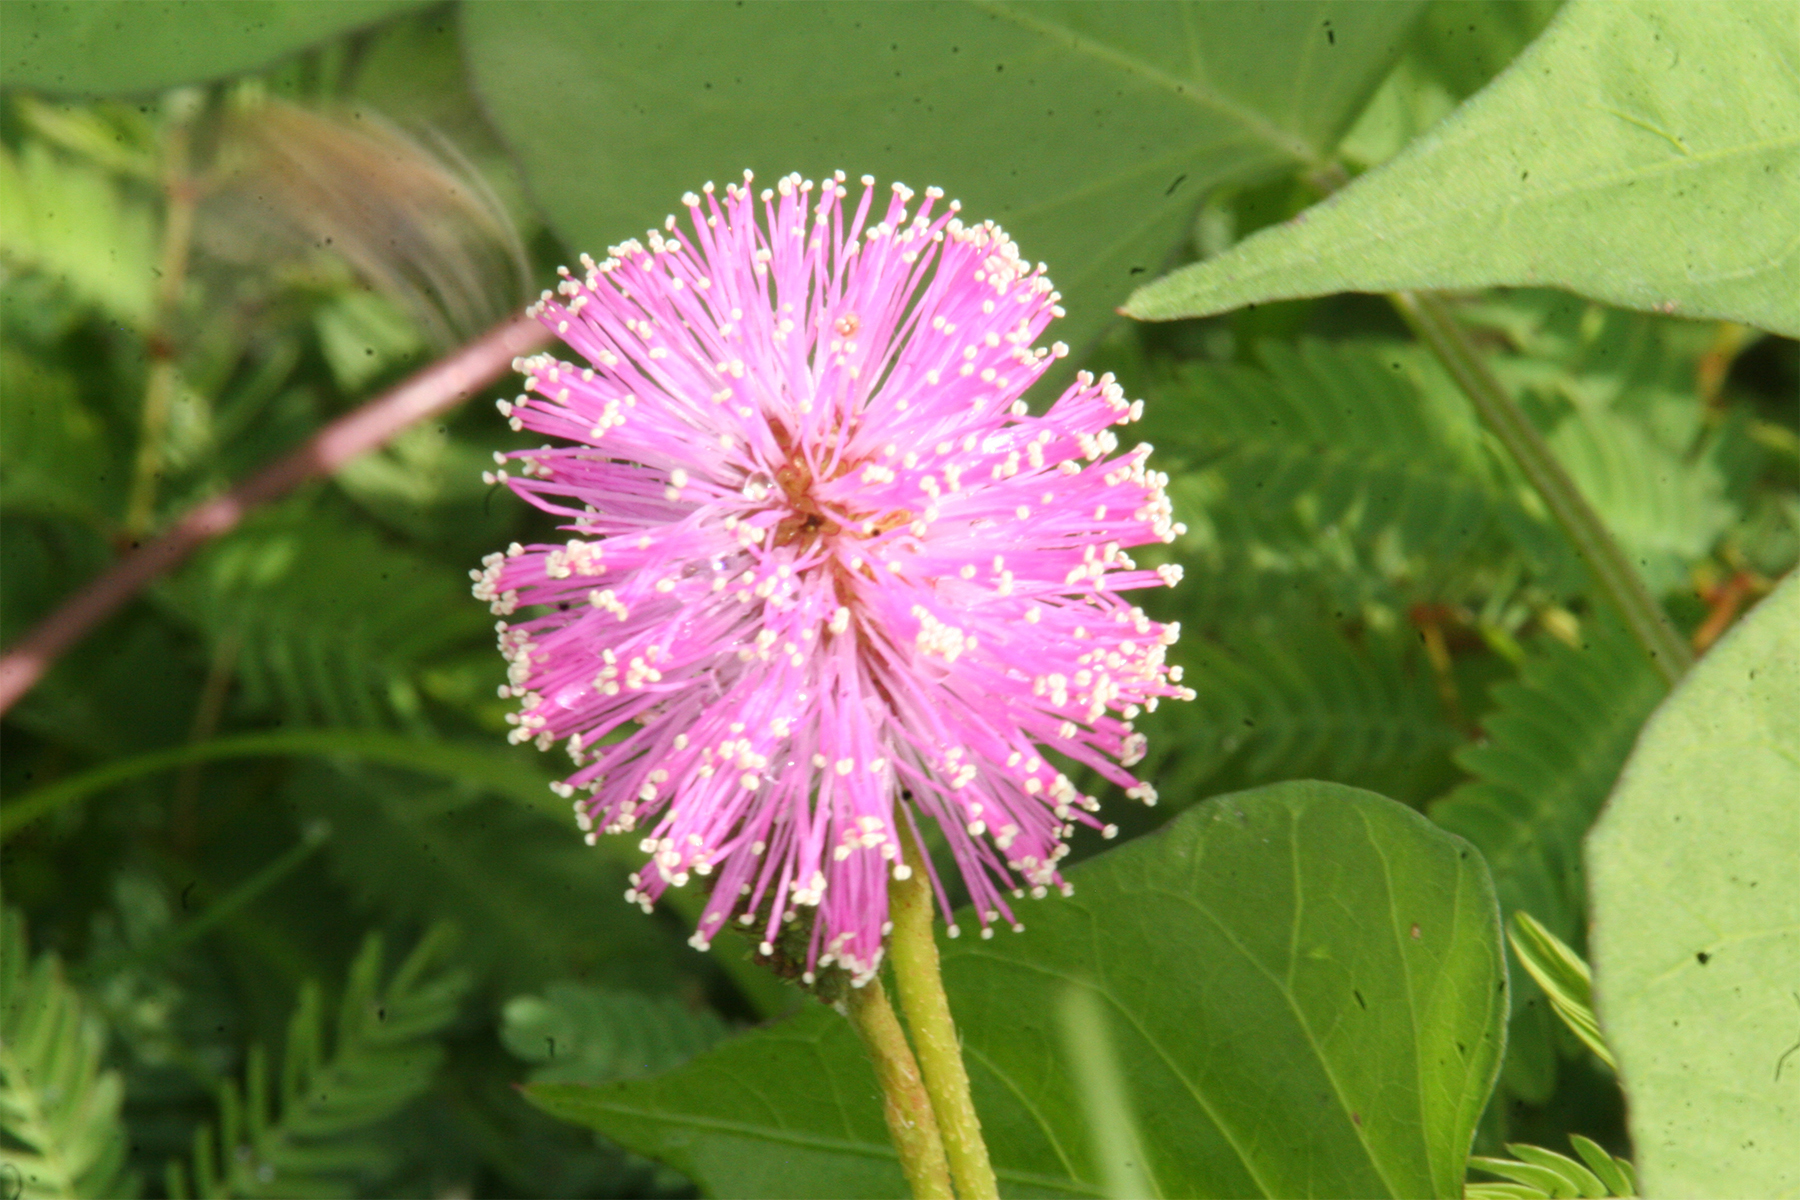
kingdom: Plantae
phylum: Tracheophyta
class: Magnoliopsida
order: Fabales
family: Fabaceae
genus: Mimosa
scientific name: Mimosa strigillosa
